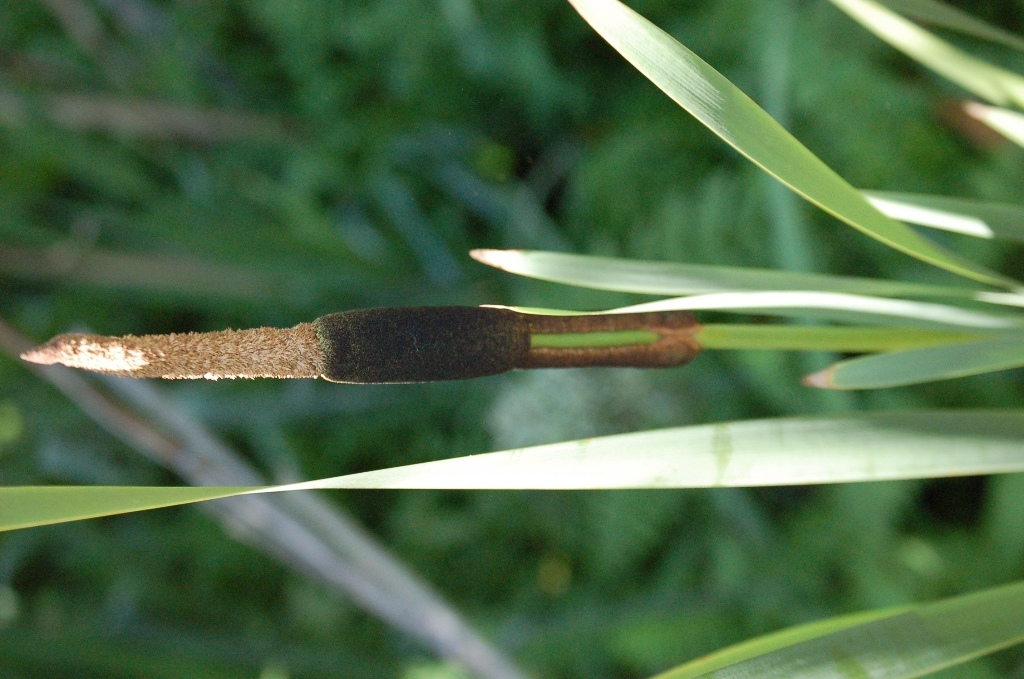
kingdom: Plantae
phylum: Tracheophyta
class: Liliopsida
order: Poales
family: Typhaceae
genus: Typha
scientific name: Typha latifolia
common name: Broadleaf cattail
